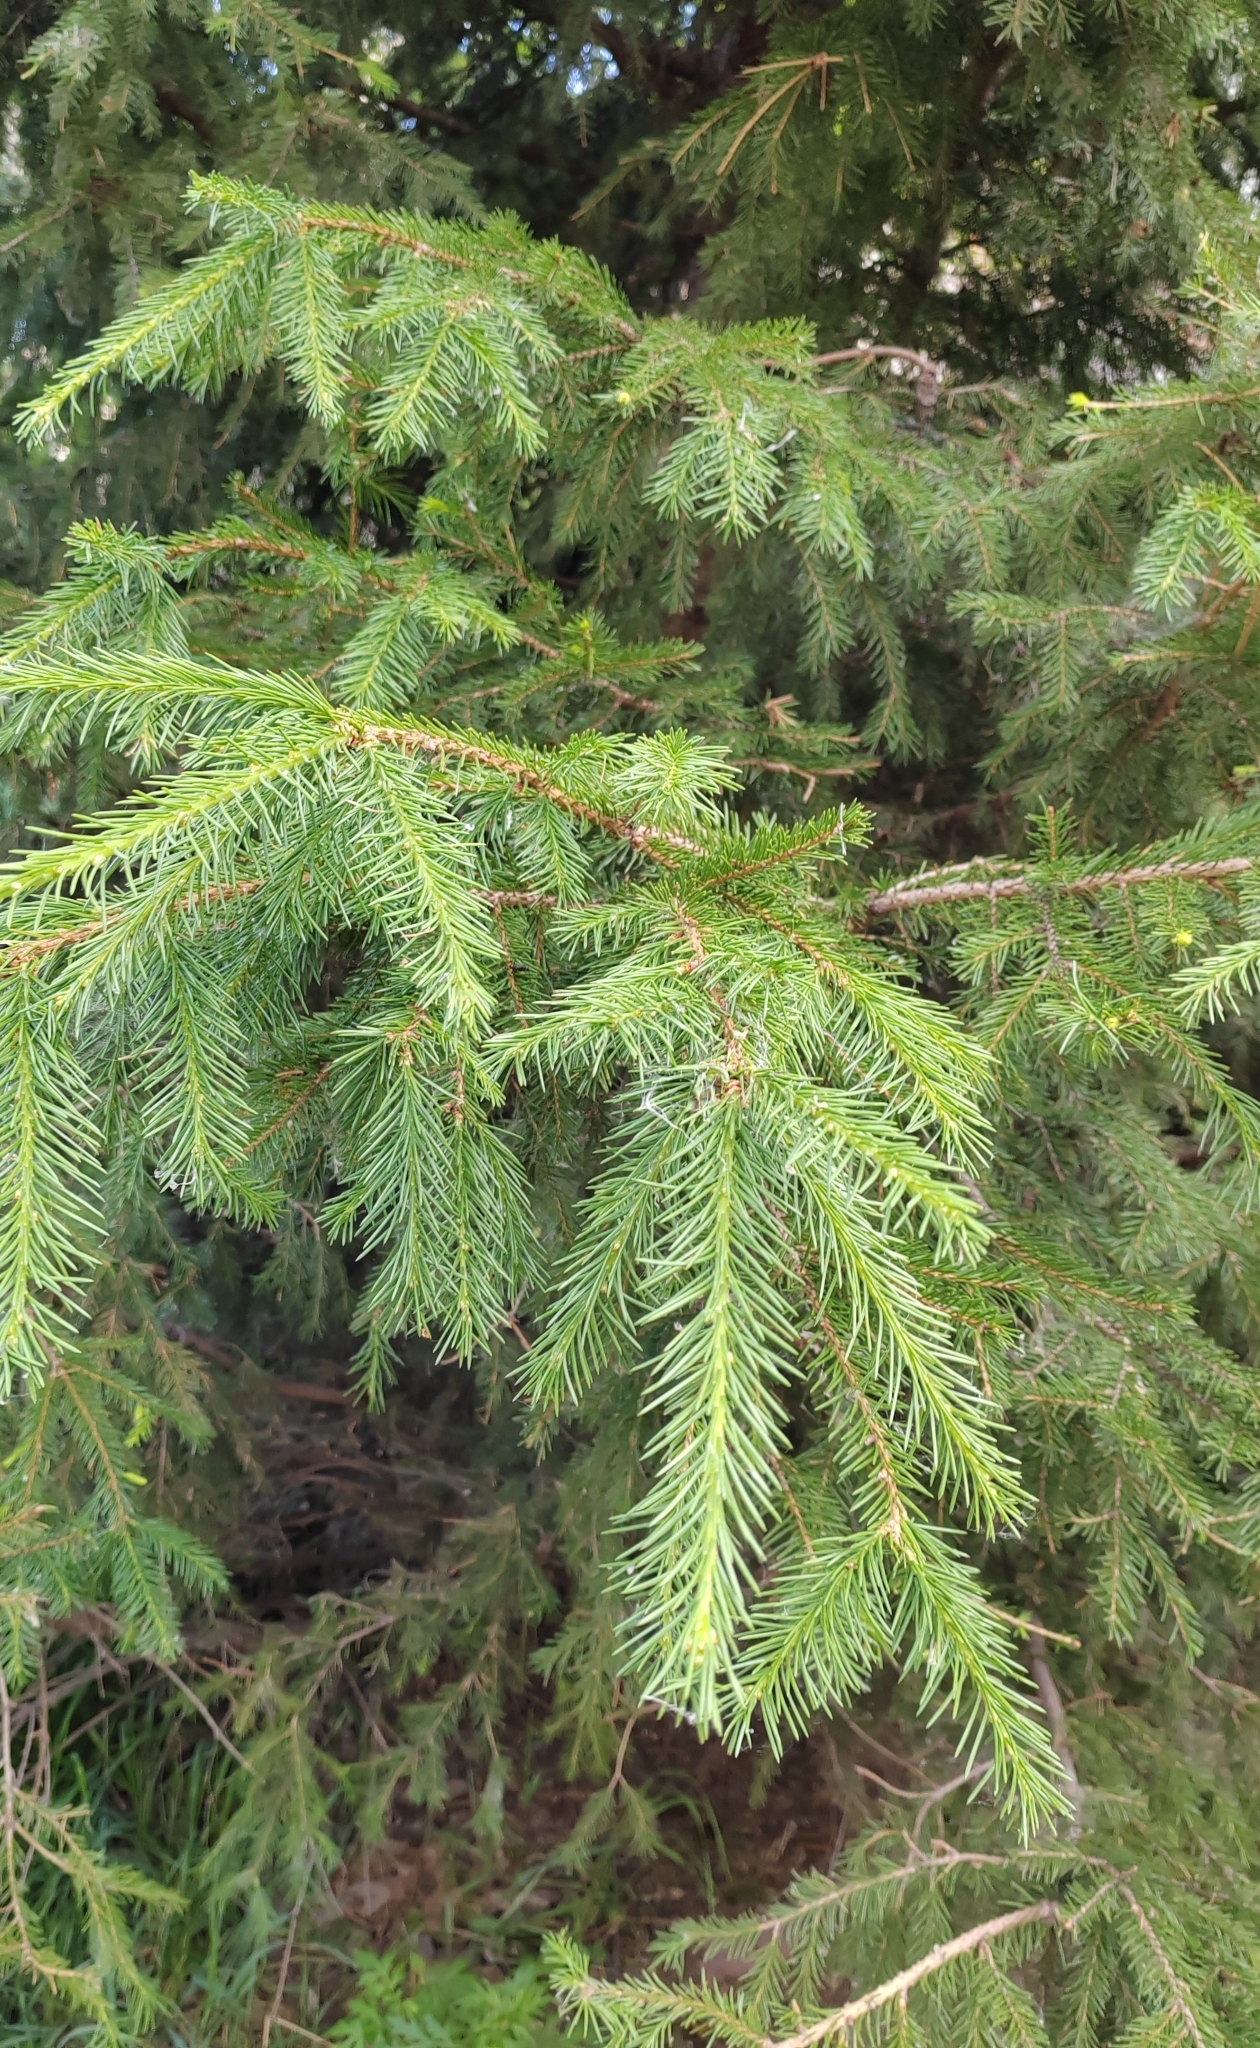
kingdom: Plantae
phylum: Tracheophyta
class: Pinopsida
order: Pinales
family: Pinaceae
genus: Picea
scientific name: Picea obovata
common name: Siberian spruce
